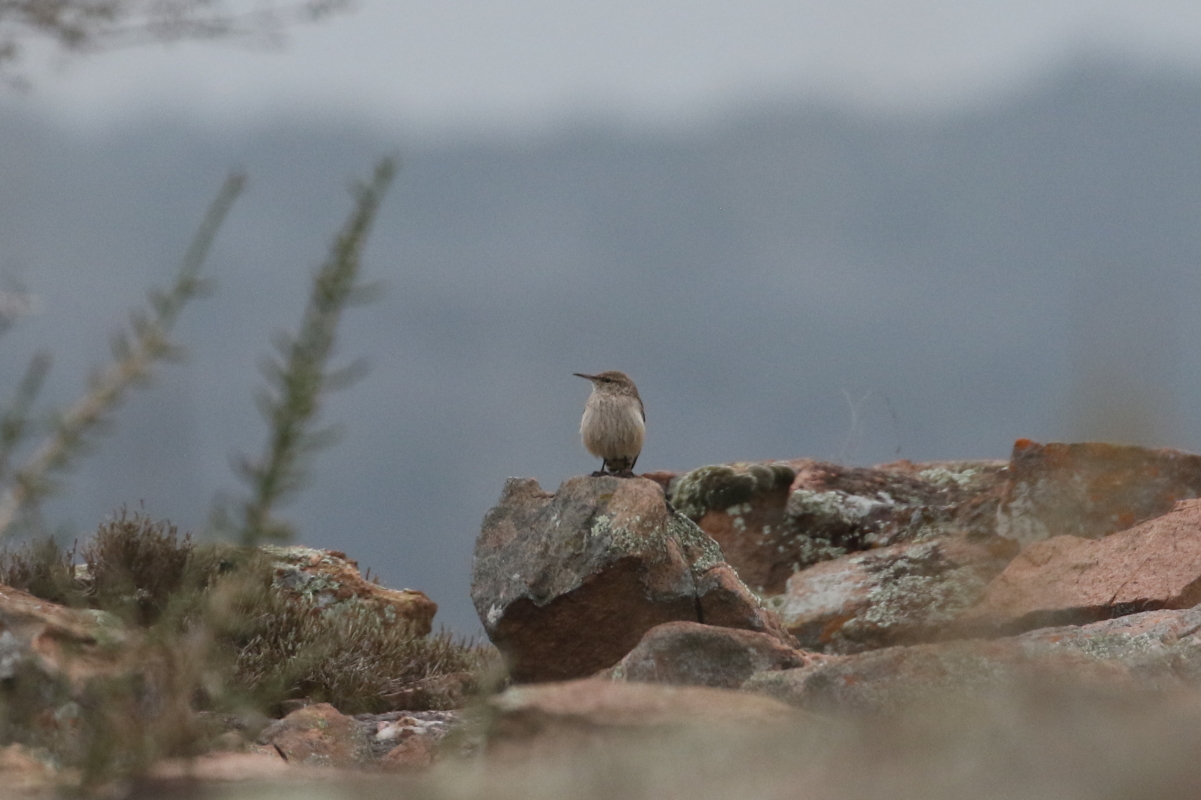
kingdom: Animalia
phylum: Chordata
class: Aves
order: Passeriformes
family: Troglodytidae
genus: Salpinctes
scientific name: Salpinctes obsoletus
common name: Rock wren
